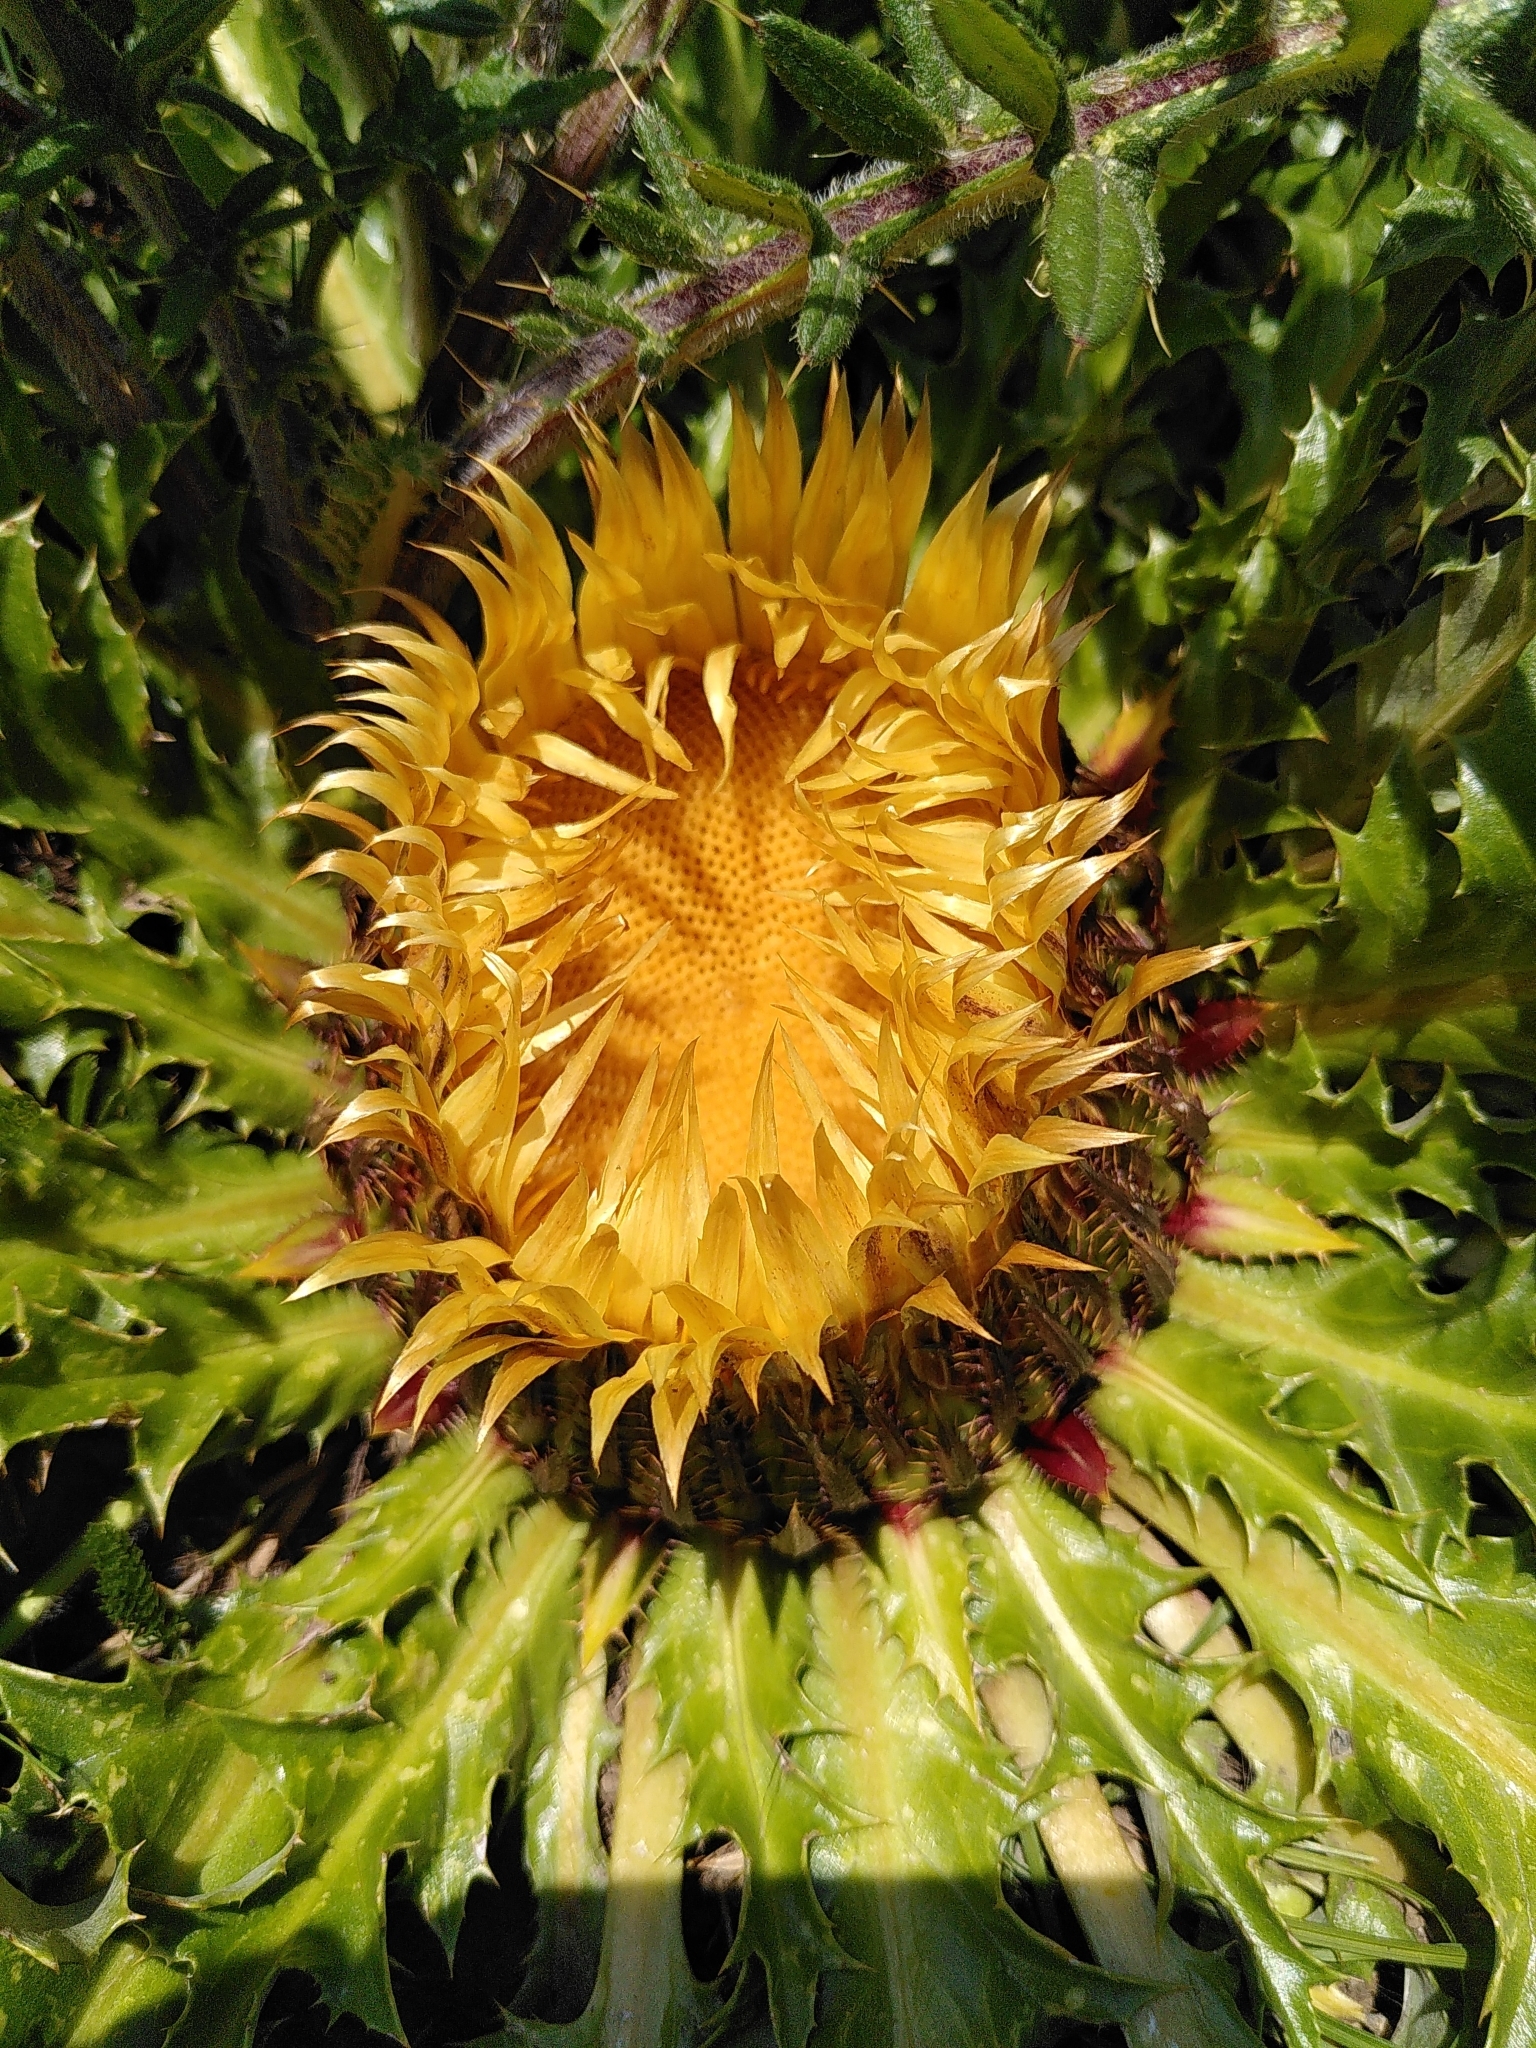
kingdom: Plantae
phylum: Tracheophyta
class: Magnoliopsida
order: Asterales
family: Asteraceae
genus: Carlina
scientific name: Carlina acanthifolia
